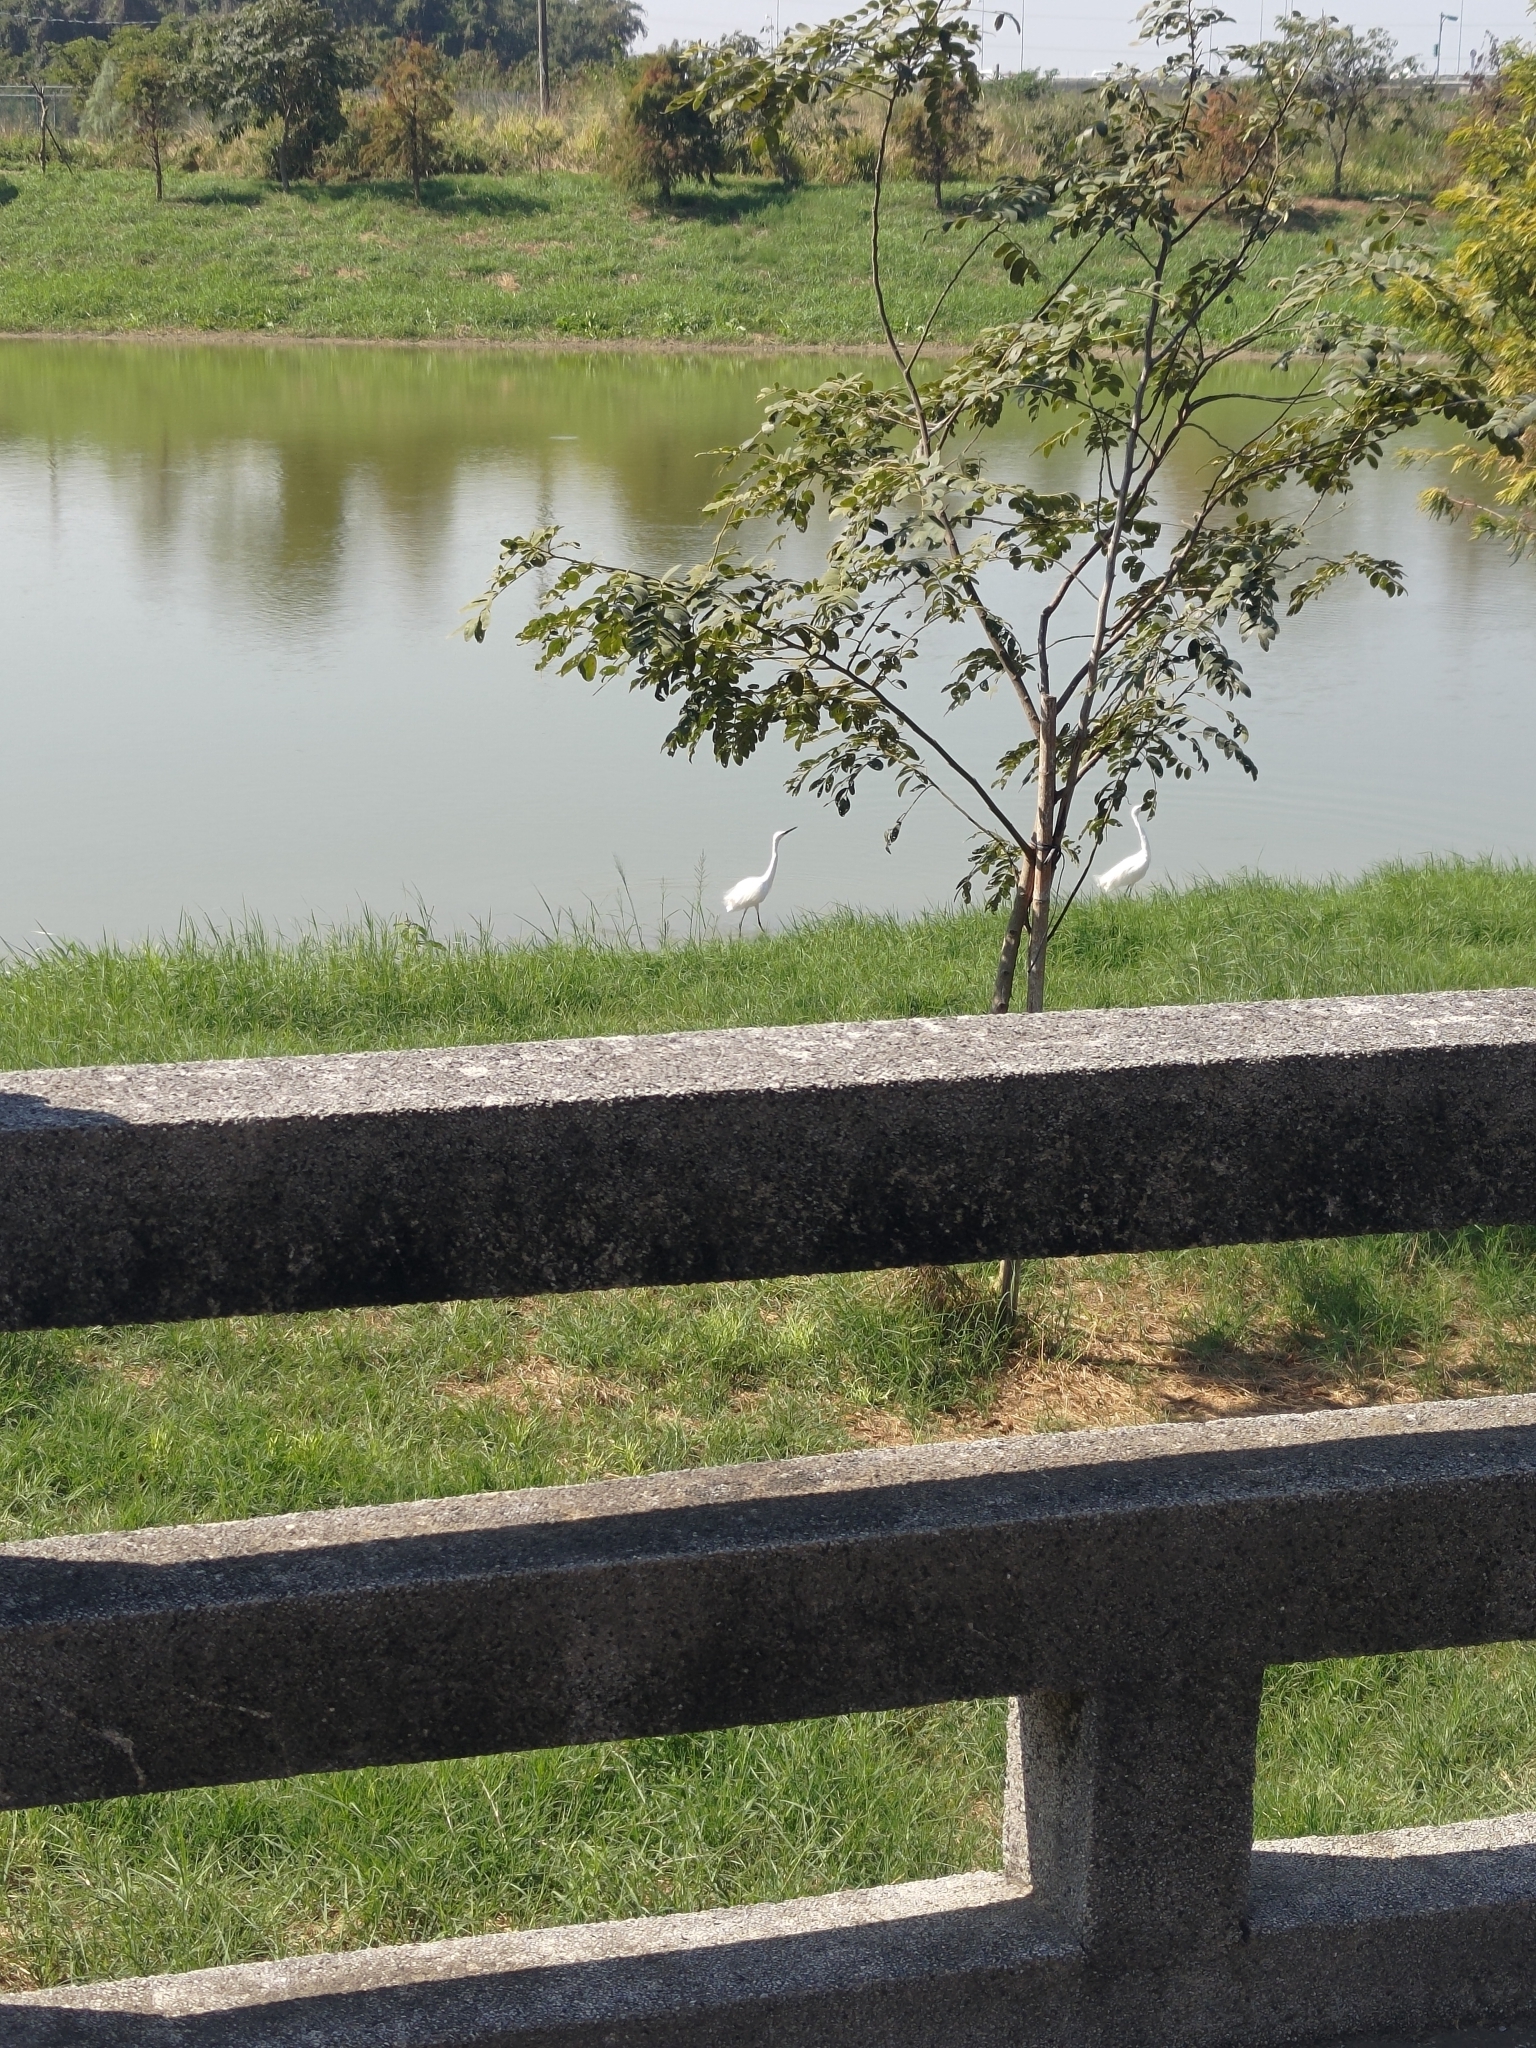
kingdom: Animalia
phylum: Chordata
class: Aves
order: Pelecaniformes
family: Ardeidae
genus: Egretta
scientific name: Egretta garzetta
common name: Little egret
